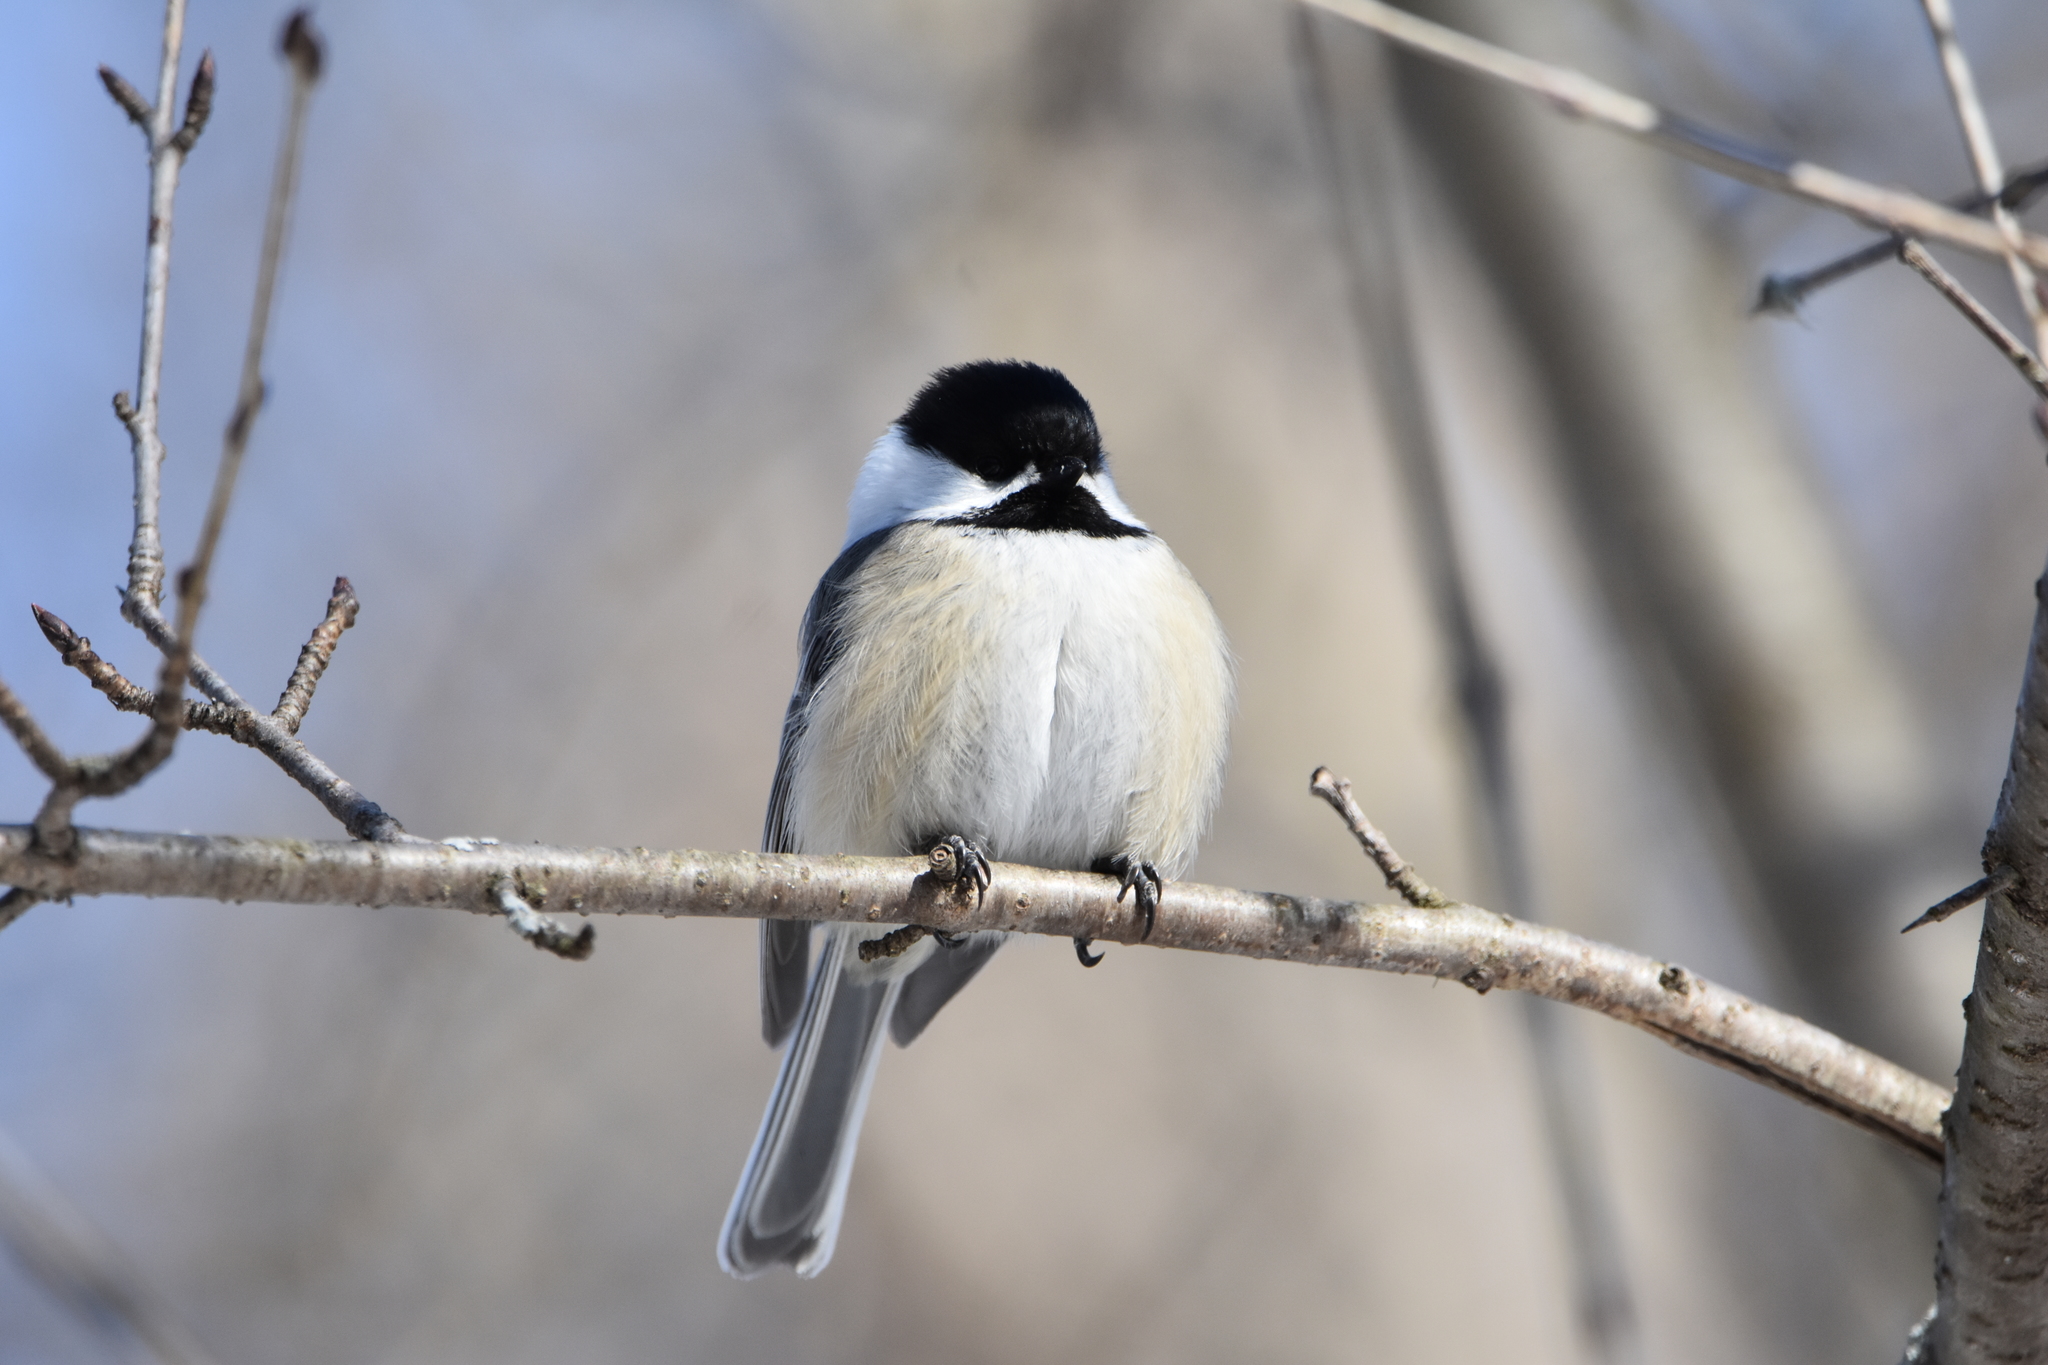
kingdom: Animalia
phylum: Chordata
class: Aves
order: Passeriformes
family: Paridae
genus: Poecile
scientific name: Poecile atricapillus
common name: Black-capped chickadee
